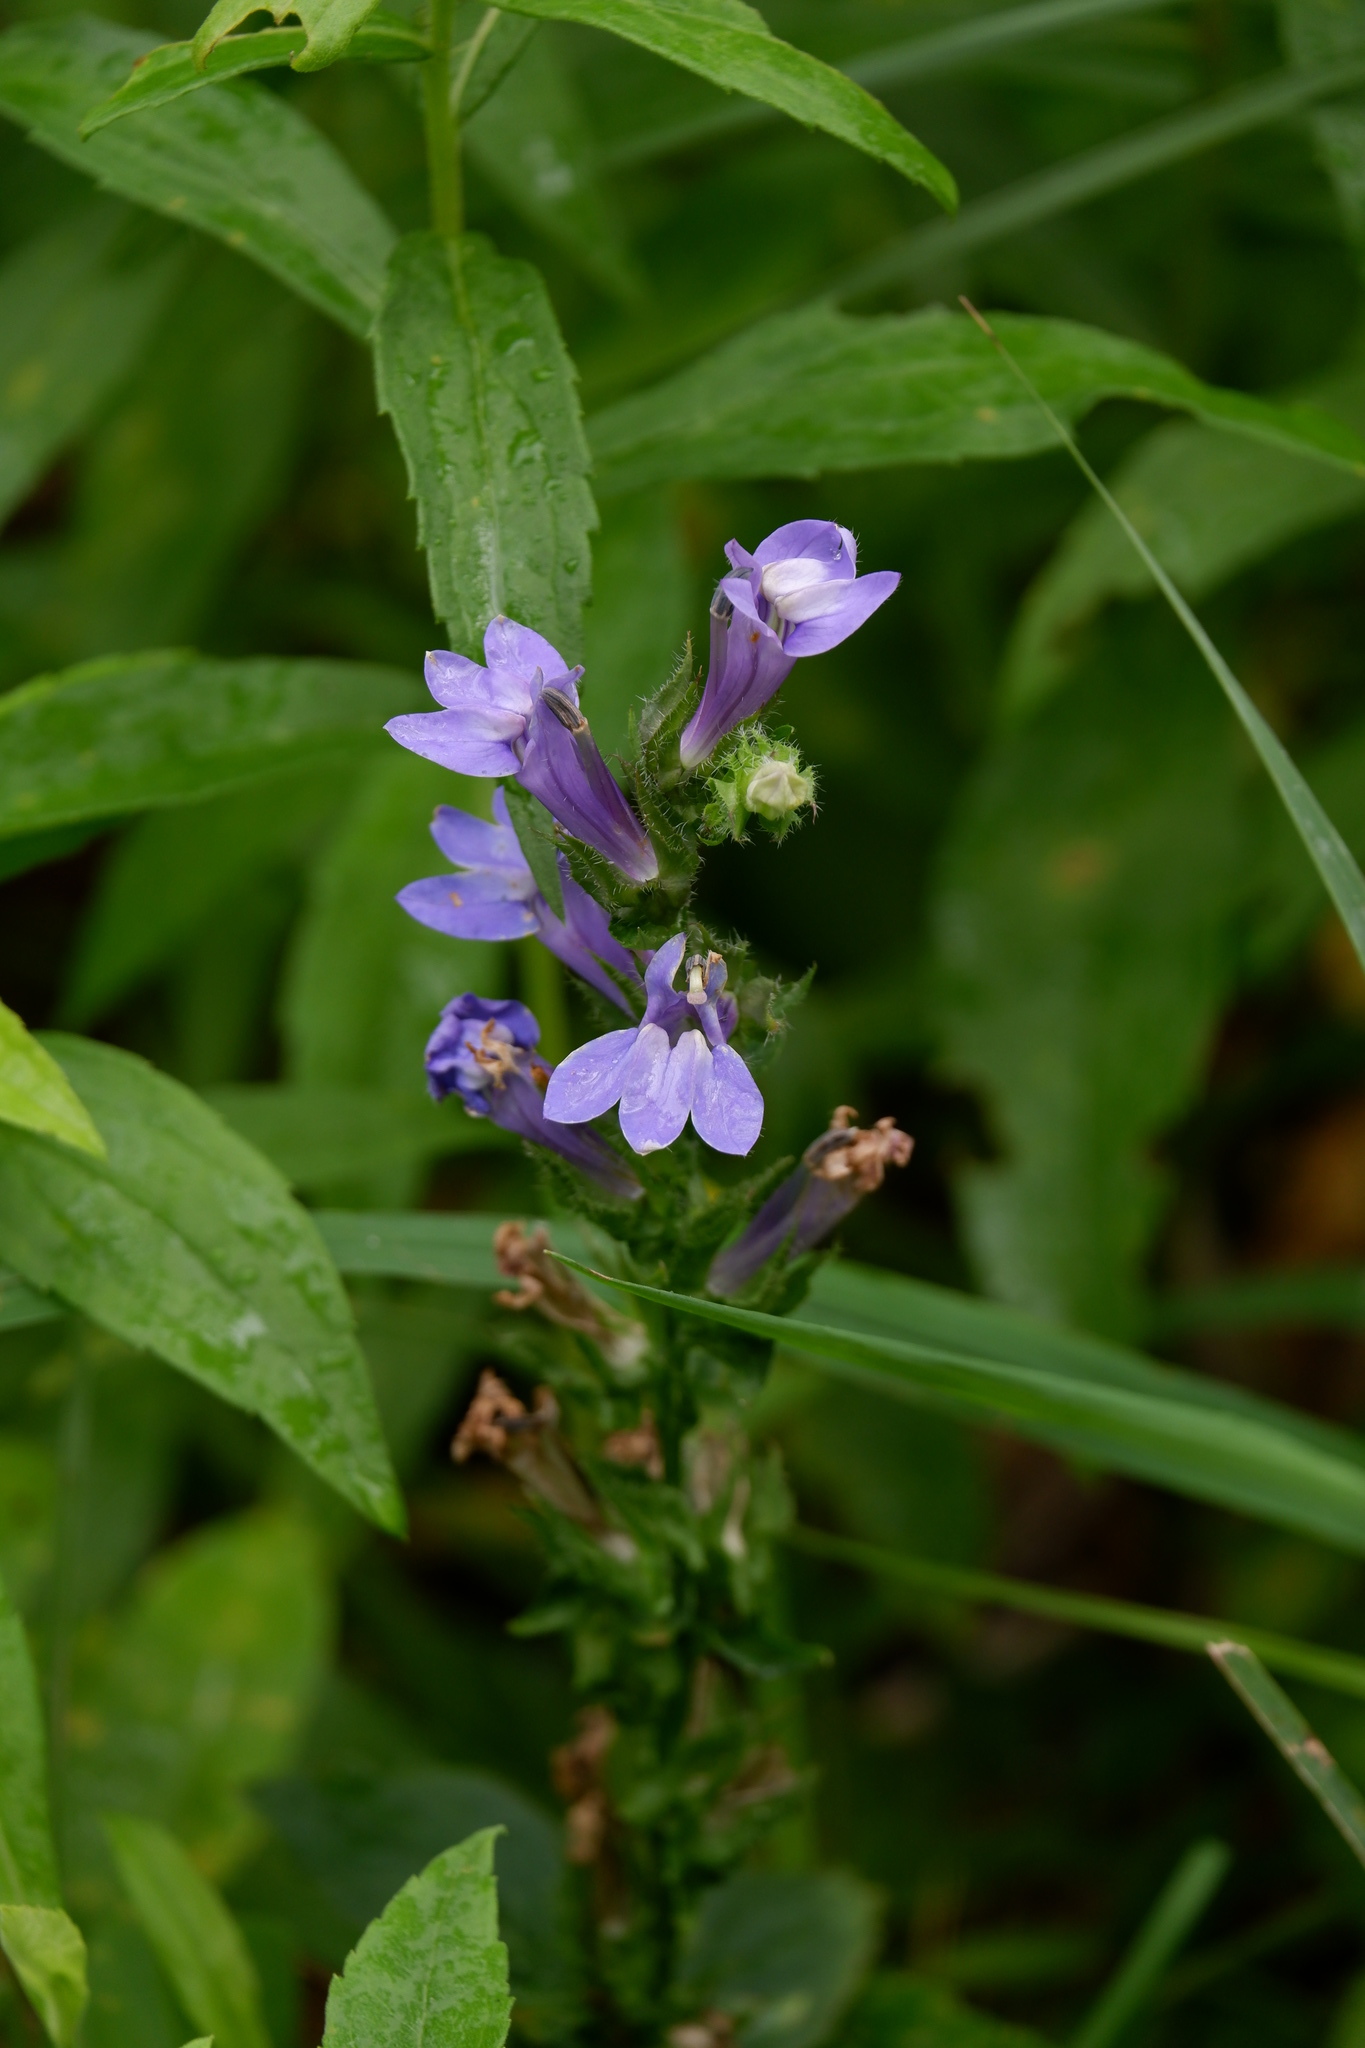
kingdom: Plantae
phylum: Tracheophyta
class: Magnoliopsida
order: Asterales
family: Campanulaceae
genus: Lobelia
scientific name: Lobelia siphilitica
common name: Great lobelia
